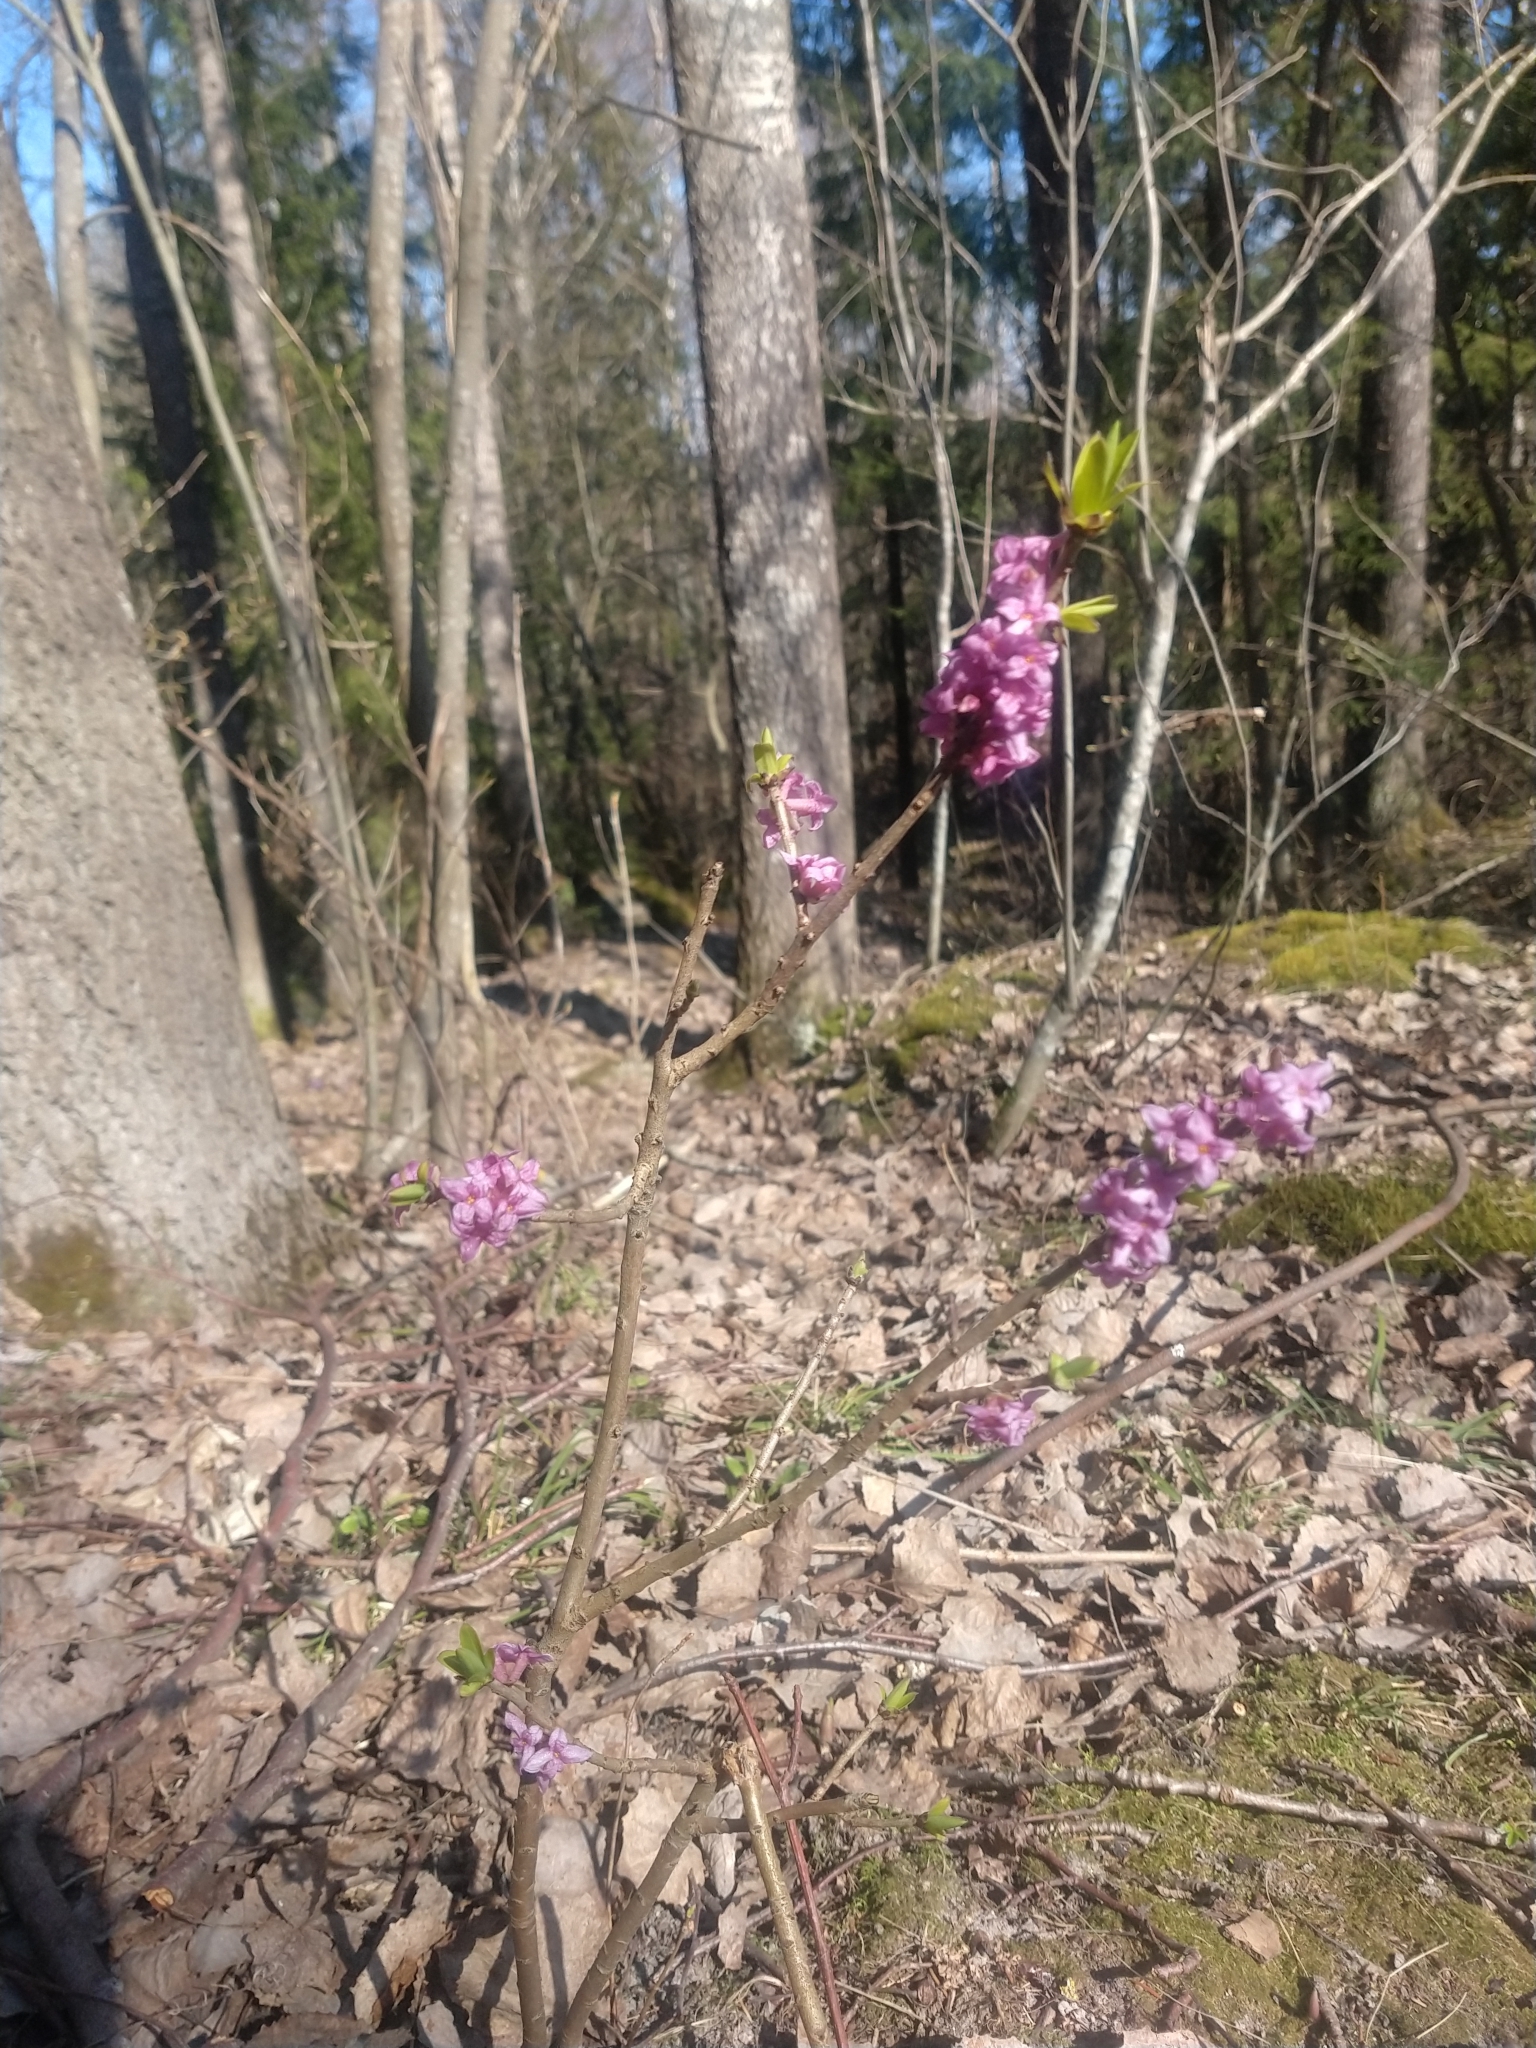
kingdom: Plantae
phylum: Tracheophyta
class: Magnoliopsida
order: Malvales
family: Thymelaeaceae
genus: Daphne
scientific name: Daphne mezereum
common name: Mezereon
